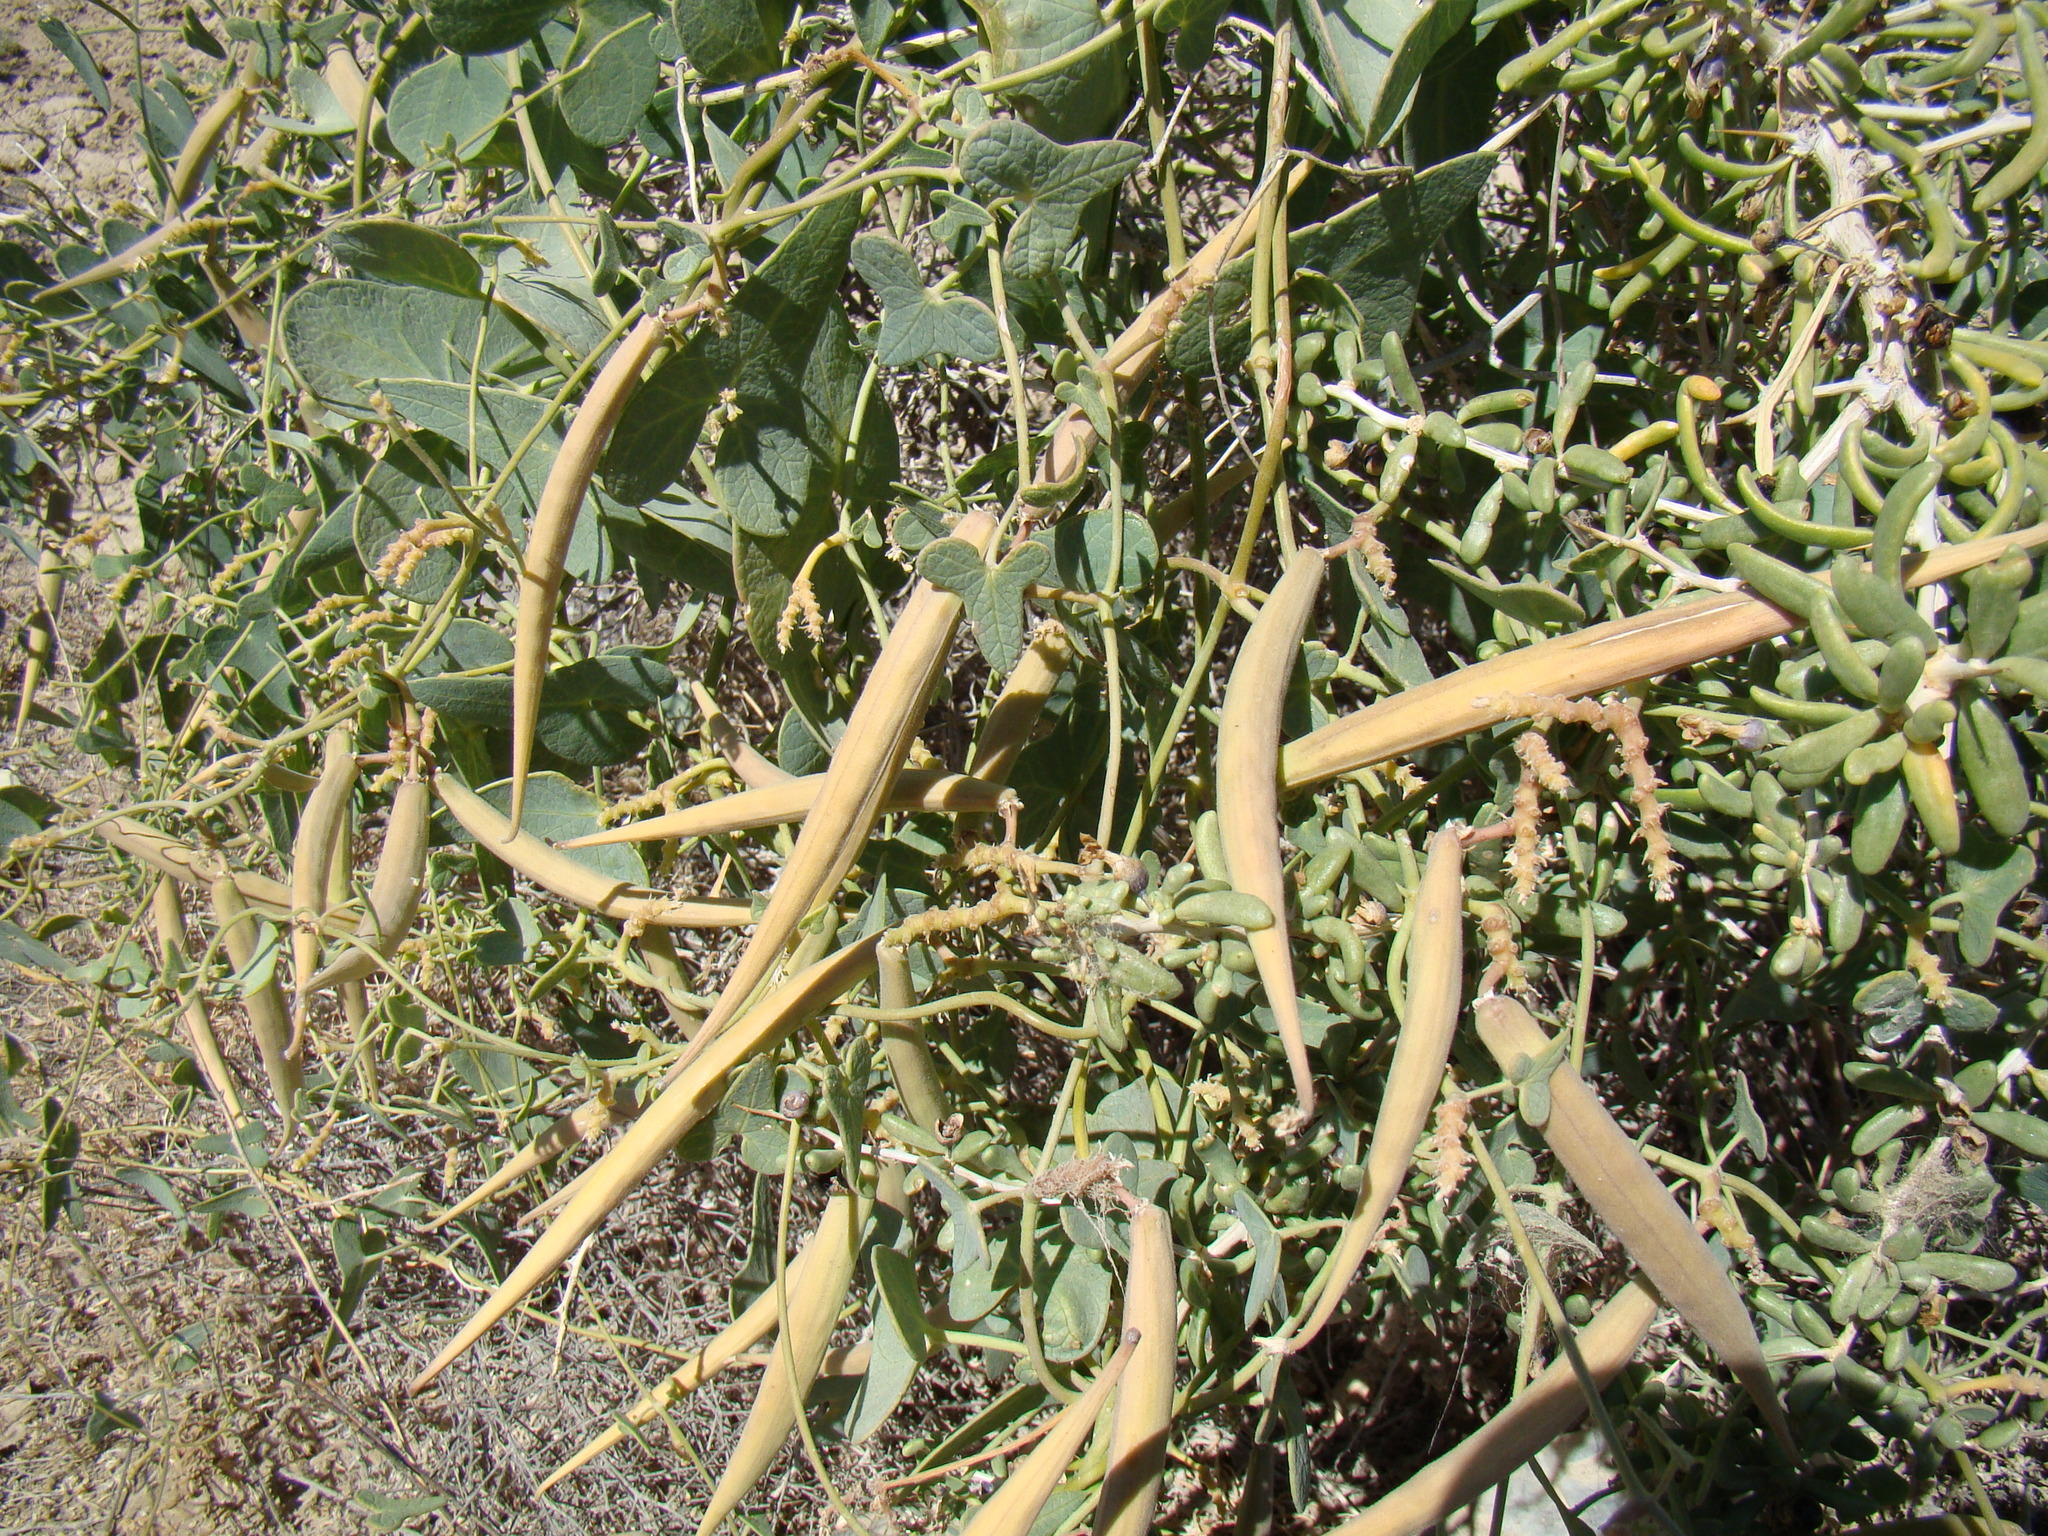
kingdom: Plantae
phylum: Tracheophyta
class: Magnoliopsida
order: Gentianales
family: Apocynaceae
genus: Cynanchum
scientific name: Cynanchum acutum
